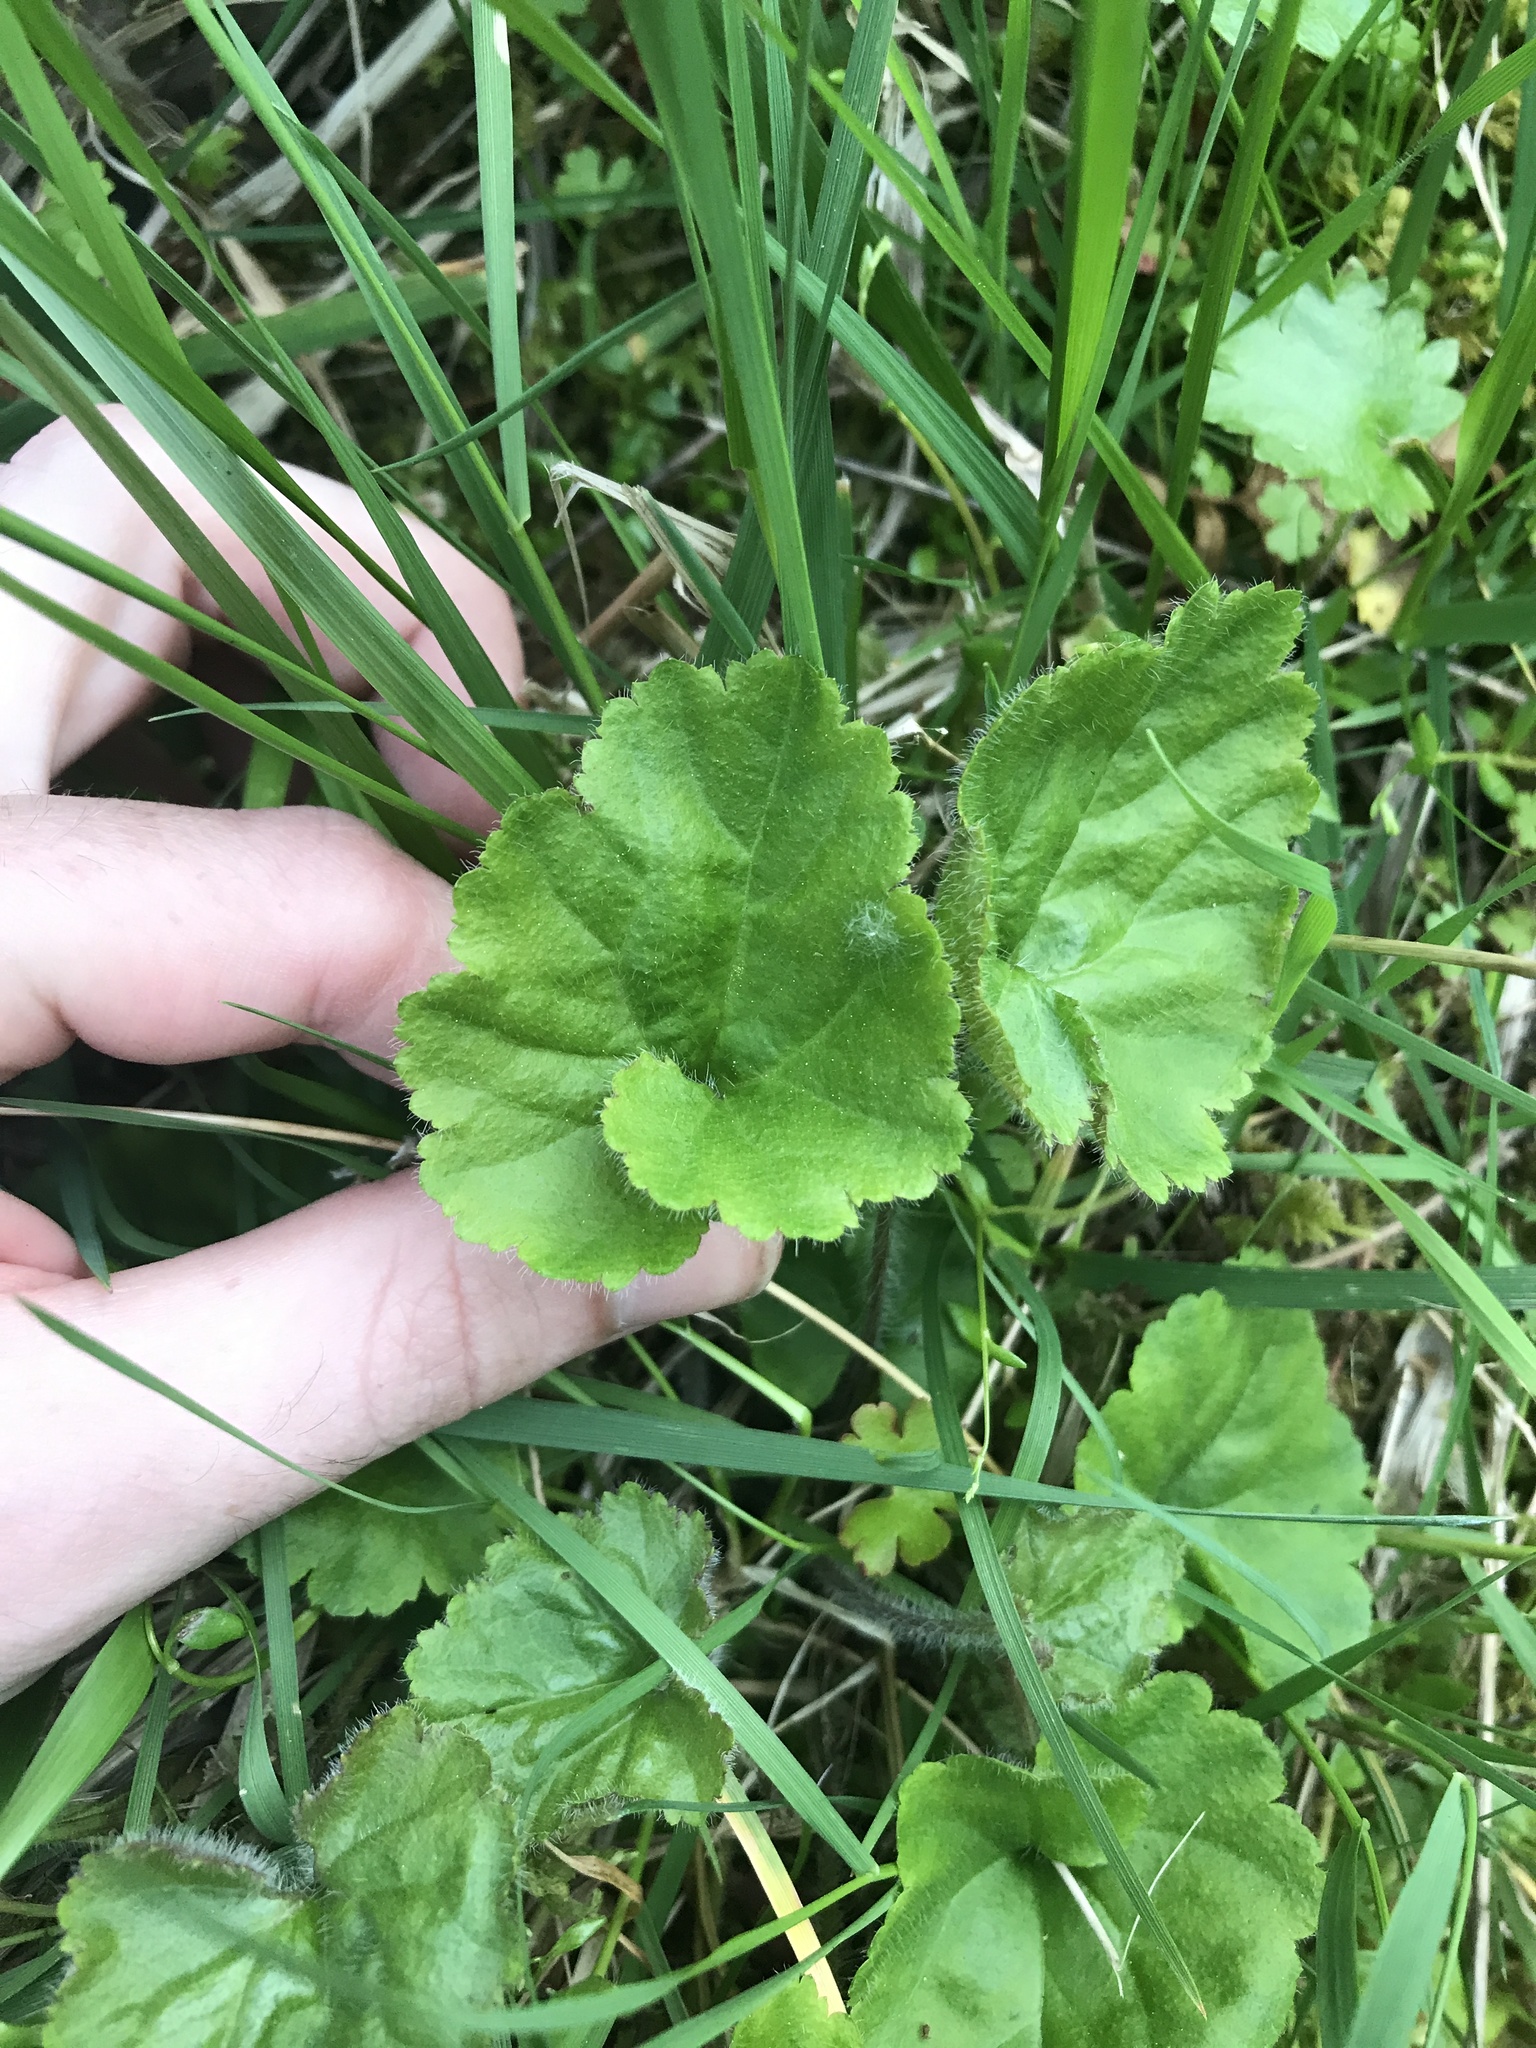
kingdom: Plantae
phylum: Tracheophyta
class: Magnoliopsida
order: Lamiales
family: Plantaginaceae
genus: Synthyris
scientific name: Synthyris reniformis
